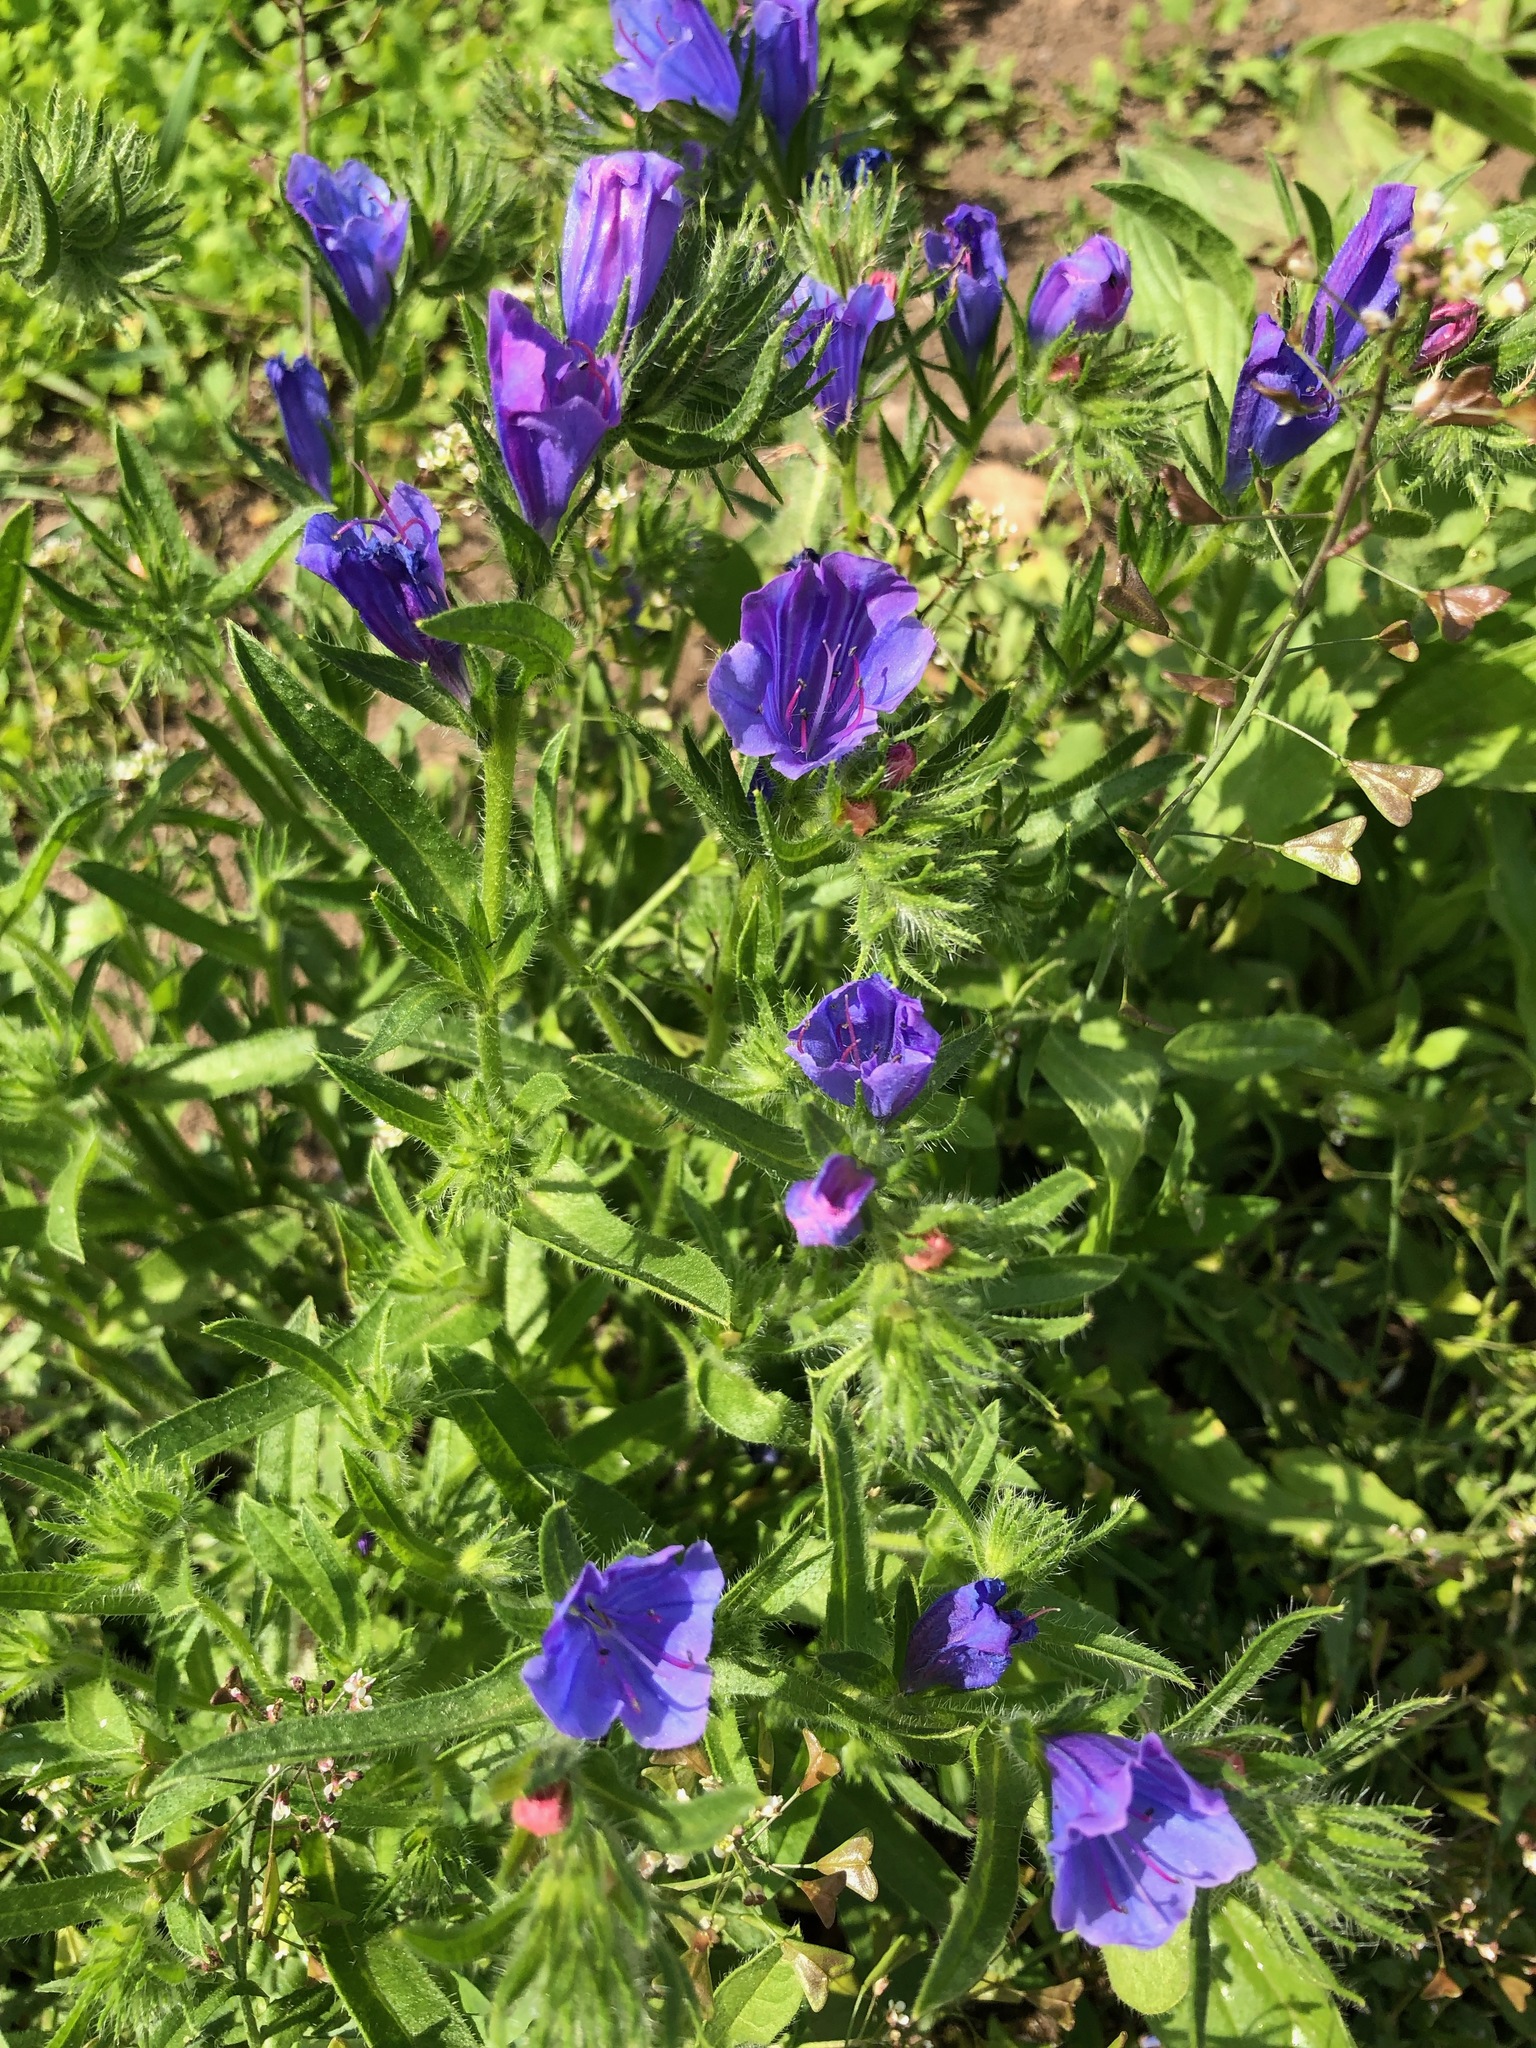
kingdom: Plantae
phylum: Tracheophyta
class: Magnoliopsida
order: Boraginales
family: Boraginaceae
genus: Echium
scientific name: Echium plantagineum
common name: Purple viper's-bugloss
